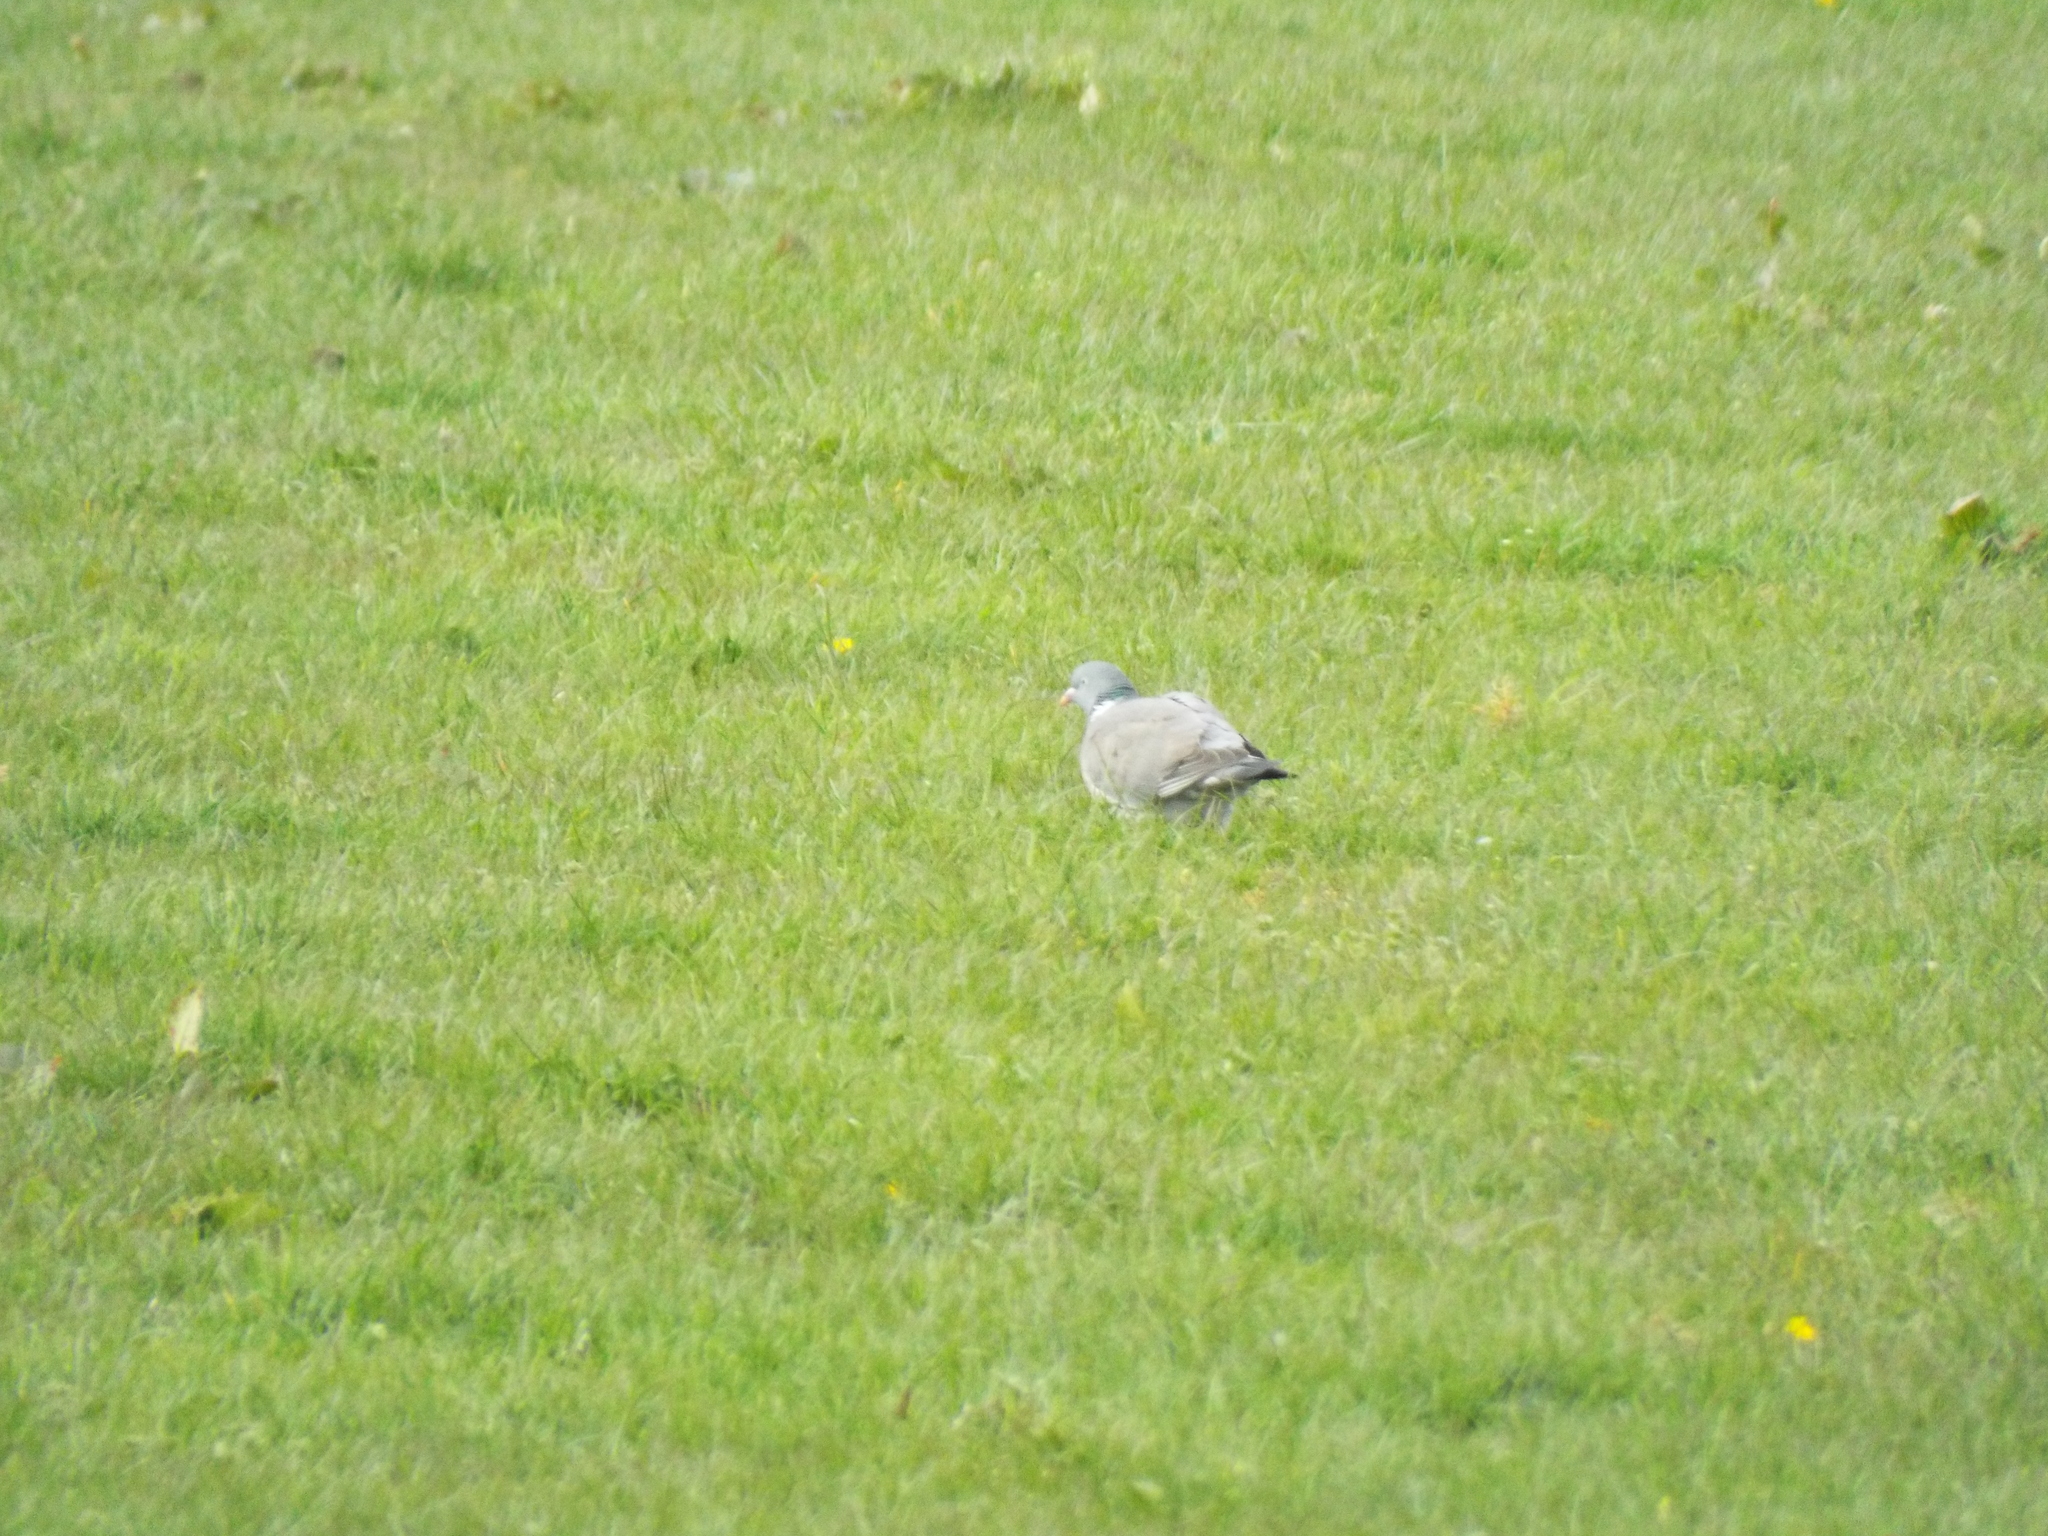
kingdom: Animalia
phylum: Chordata
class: Aves
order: Columbiformes
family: Columbidae
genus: Columba
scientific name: Columba palumbus
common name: Common wood pigeon
